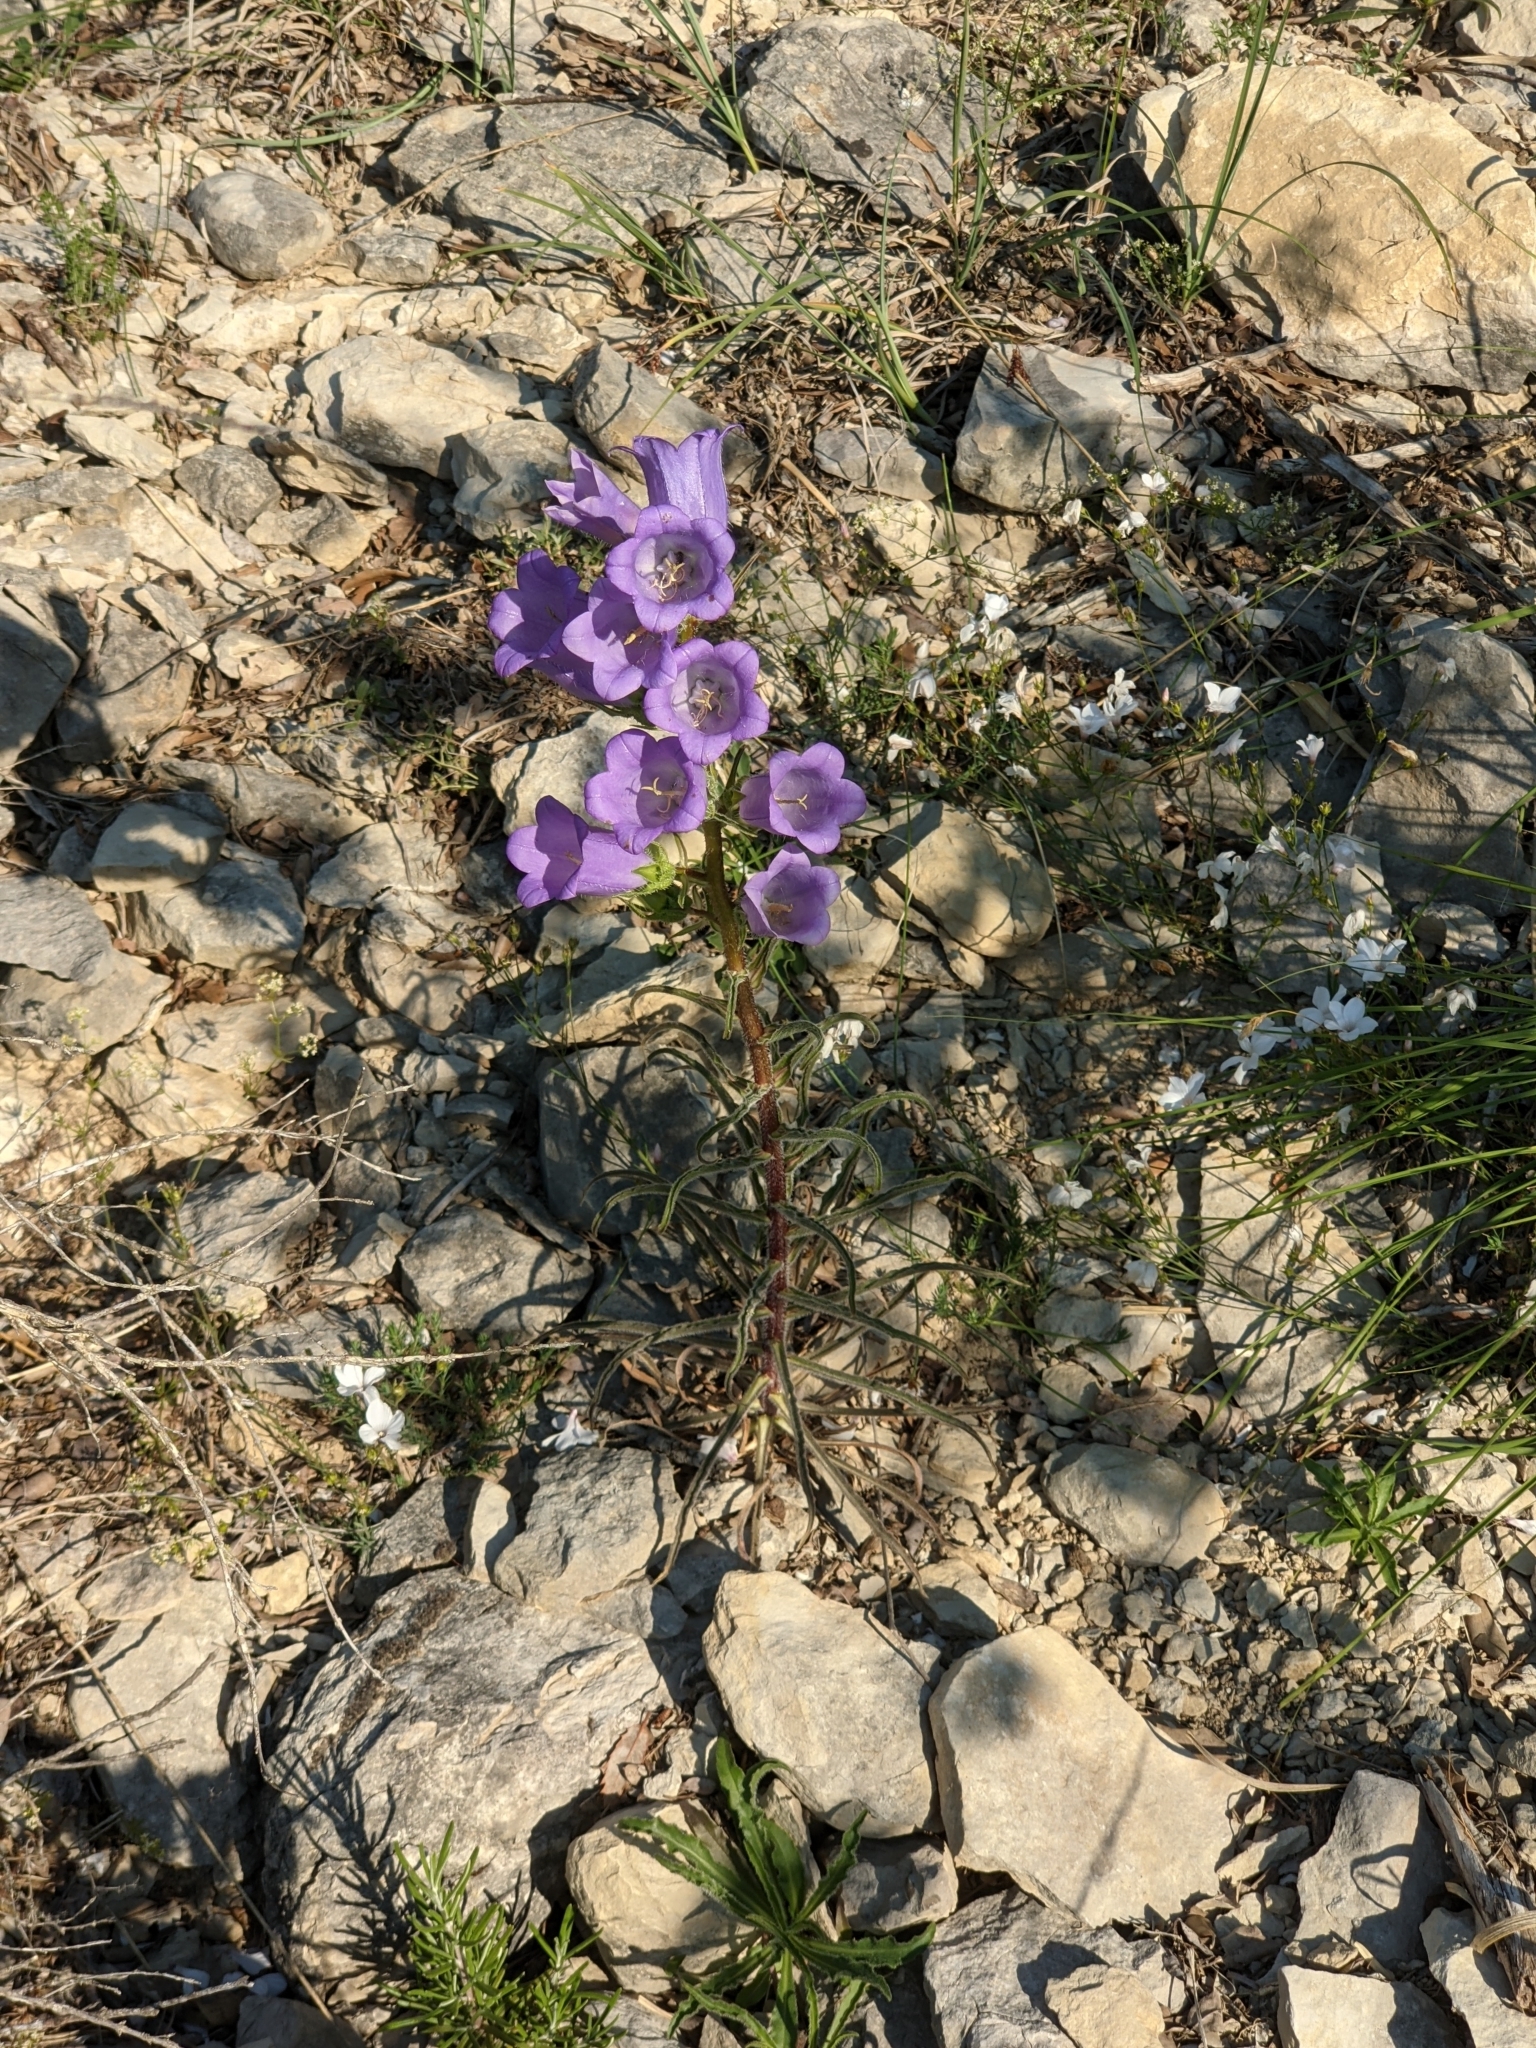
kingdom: Plantae
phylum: Tracheophyta
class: Magnoliopsida
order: Asterales
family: Campanulaceae
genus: Campanula
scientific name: Campanula speciosa
